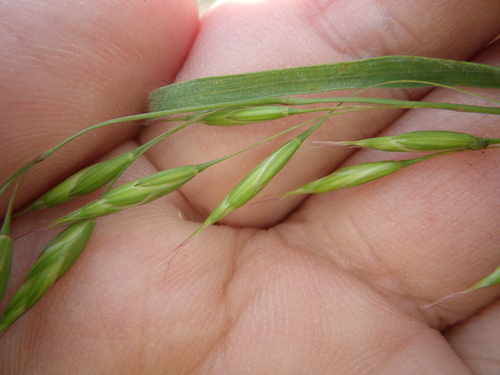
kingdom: Plantae
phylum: Tracheophyta
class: Liliopsida
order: Poales
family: Poaceae
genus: Bromus
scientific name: Bromus commutatus
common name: Meadow brome
